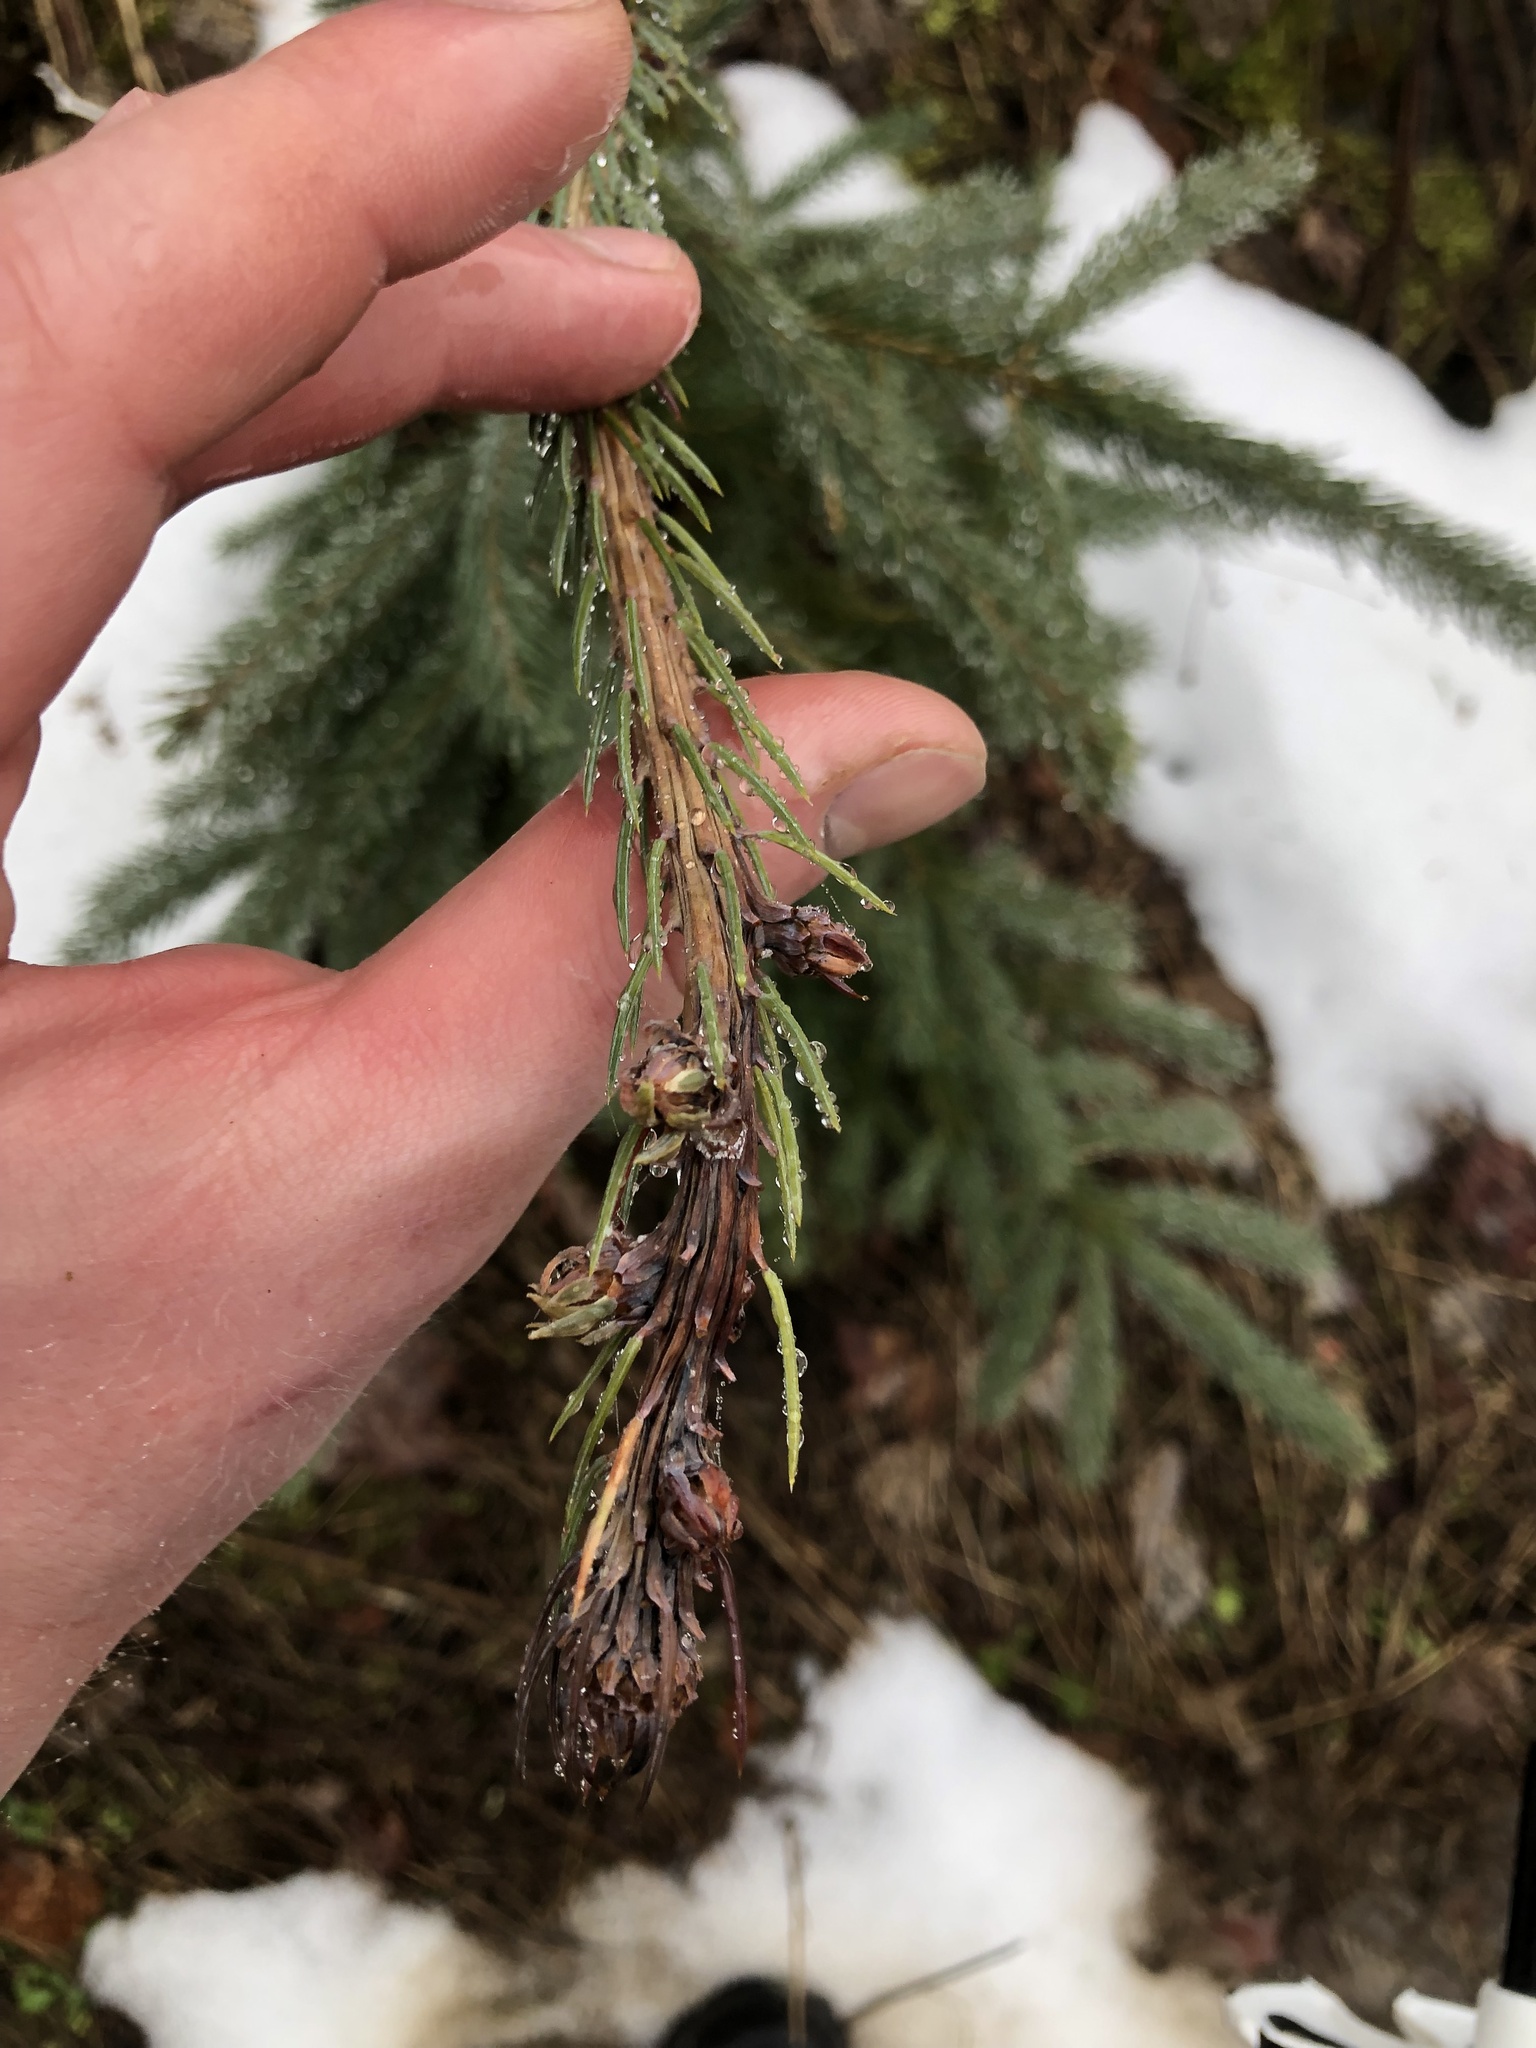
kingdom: Plantae
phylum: Tracheophyta
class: Pinopsida
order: Pinales
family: Pinaceae
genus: Picea
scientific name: Picea sitchensis
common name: Sitka spruce
